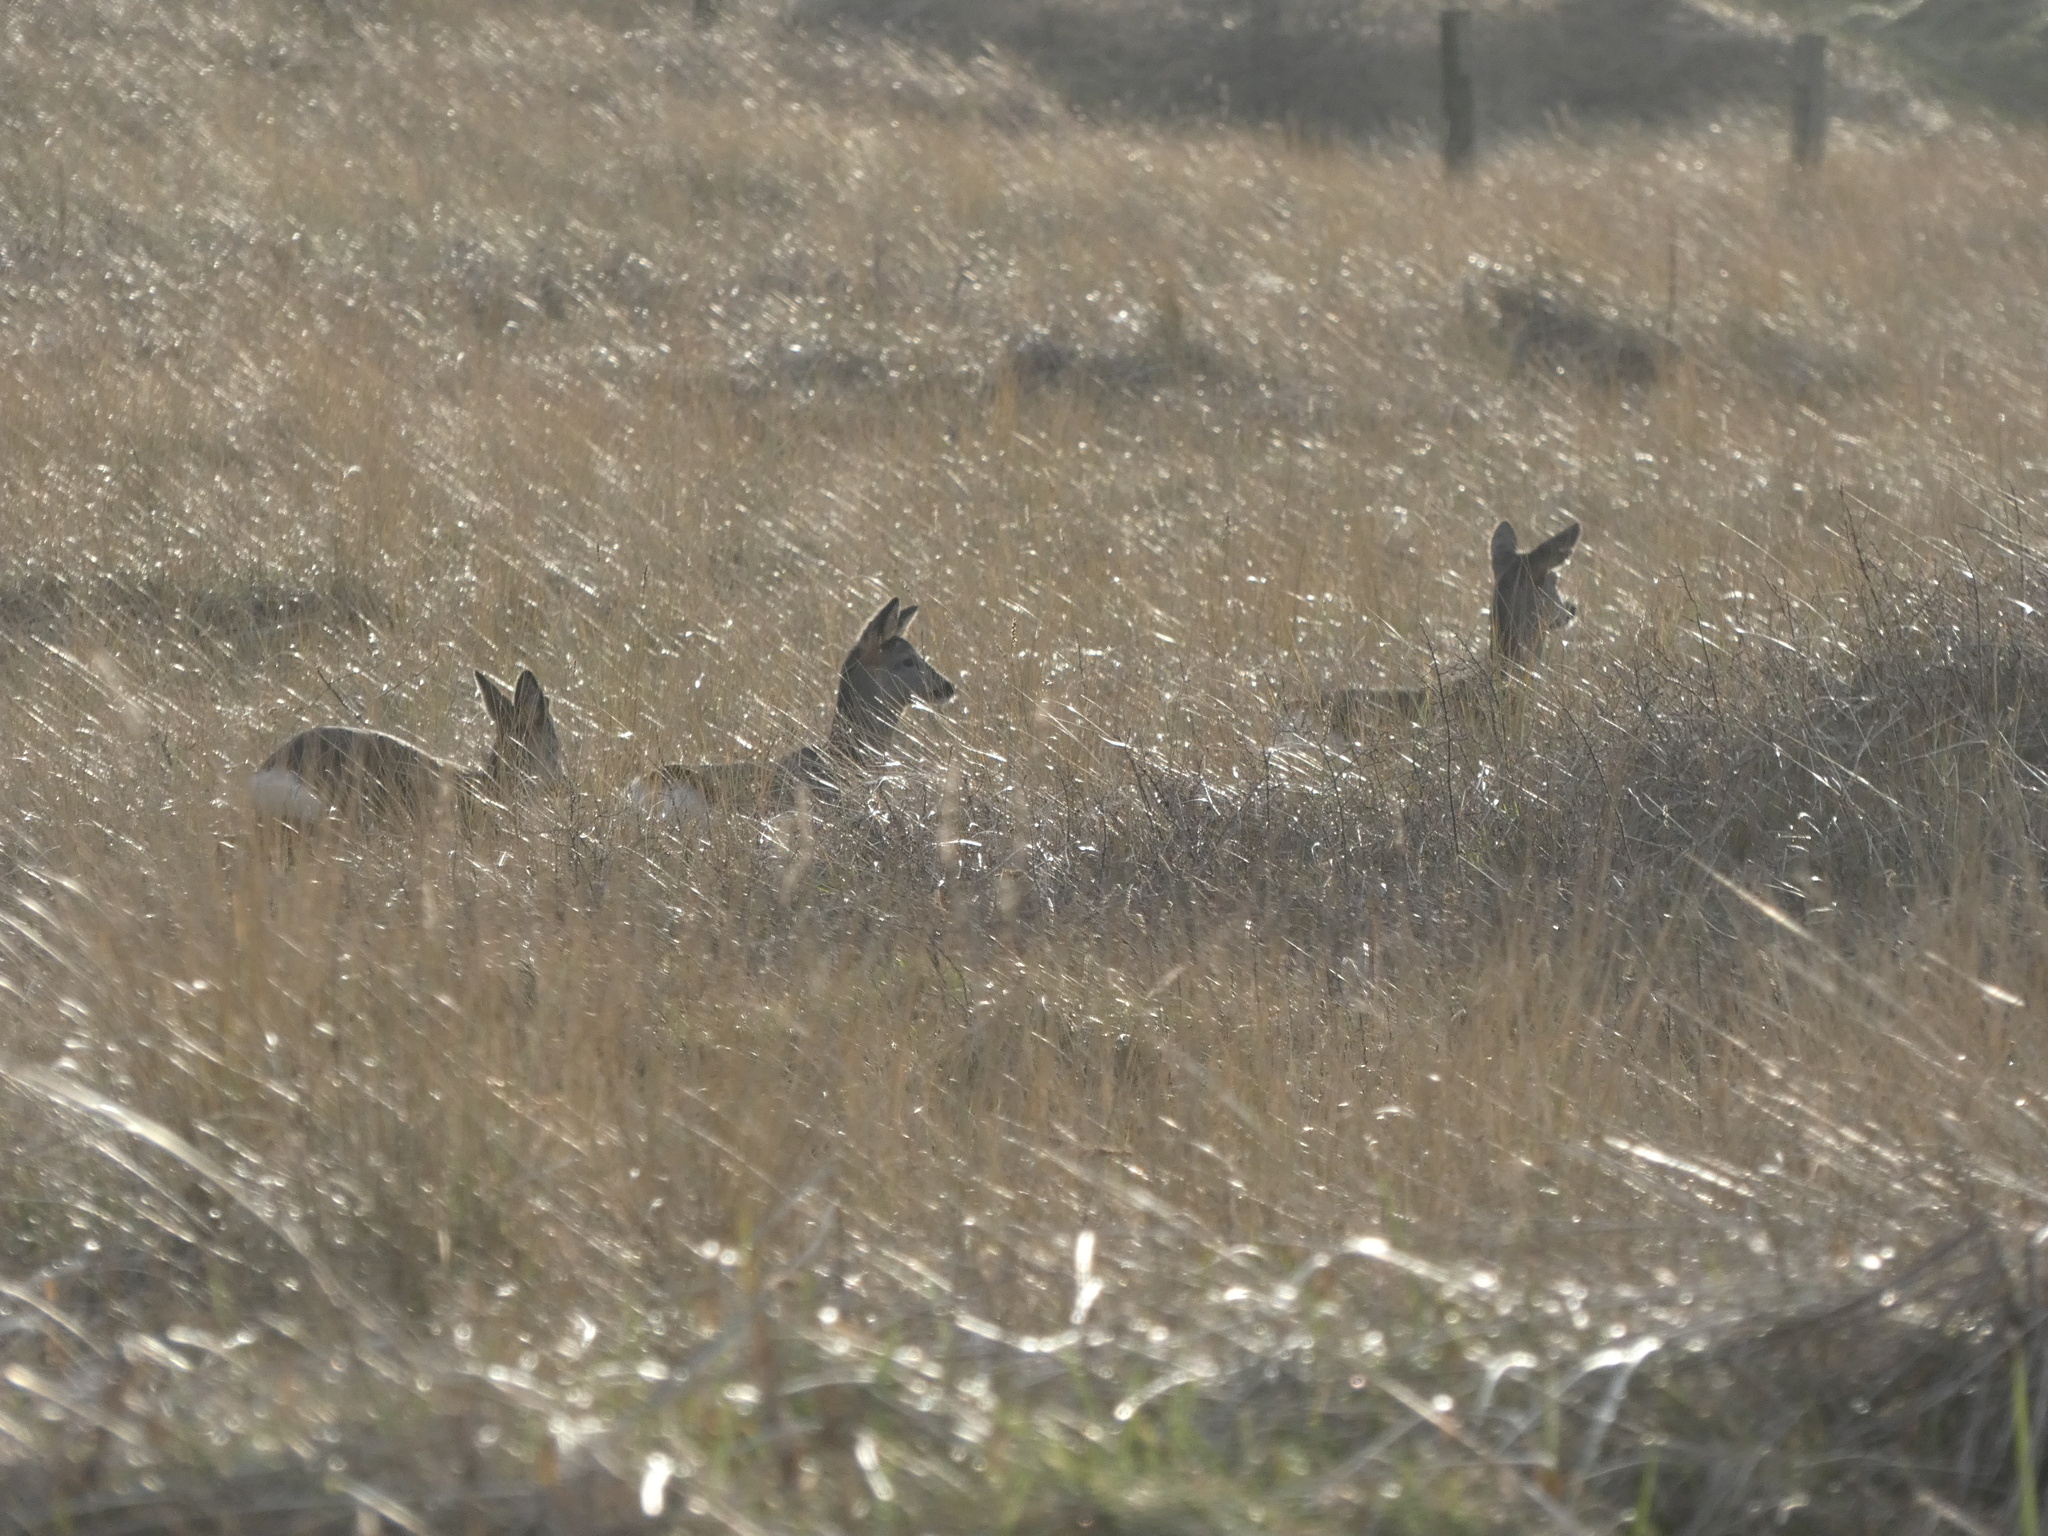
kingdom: Animalia
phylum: Chordata
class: Mammalia
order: Artiodactyla
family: Cervidae
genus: Capreolus
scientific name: Capreolus capreolus
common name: Western roe deer
